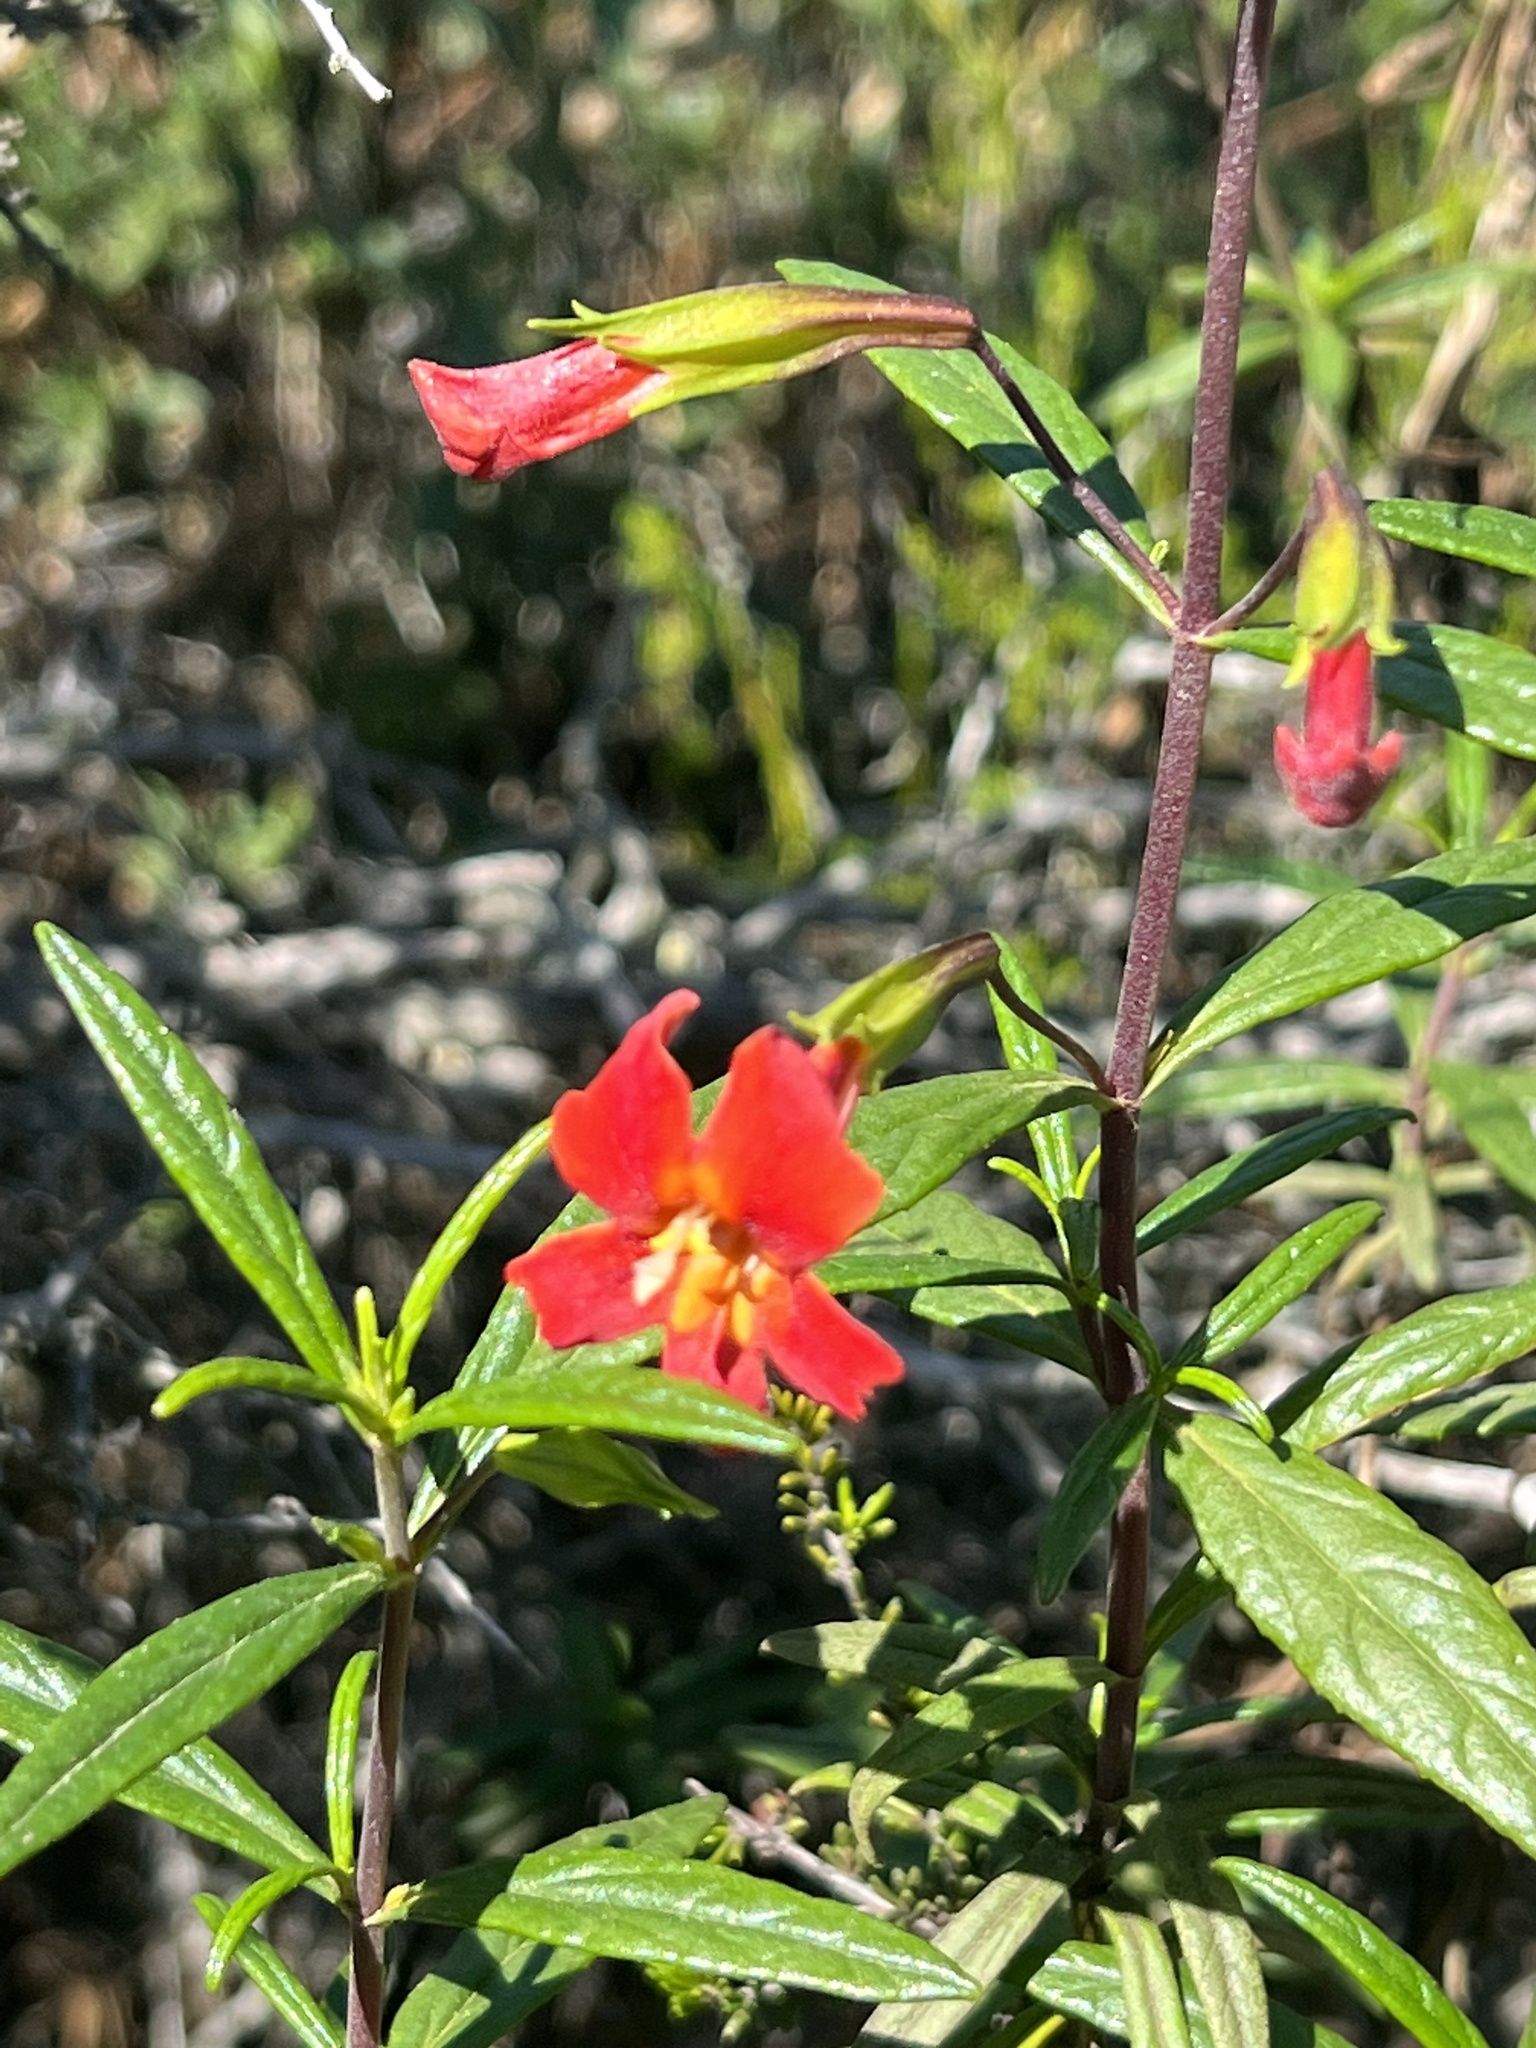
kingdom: Plantae
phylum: Tracheophyta
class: Magnoliopsida
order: Lamiales
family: Phrymaceae
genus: Diplacus
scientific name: Diplacus puniceus
